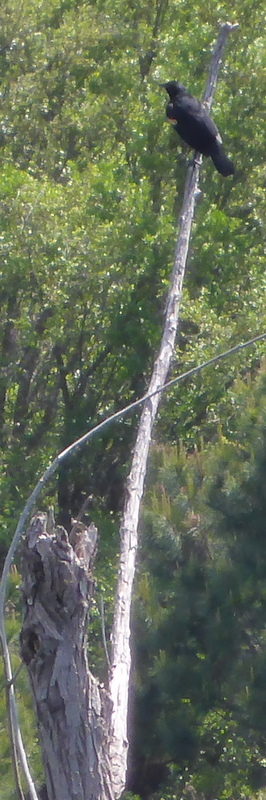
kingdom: Animalia
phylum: Chordata
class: Aves
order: Passeriformes
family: Icteridae
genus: Agelaius
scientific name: Agelaius phoeniceus
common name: Red-winged blackbird
